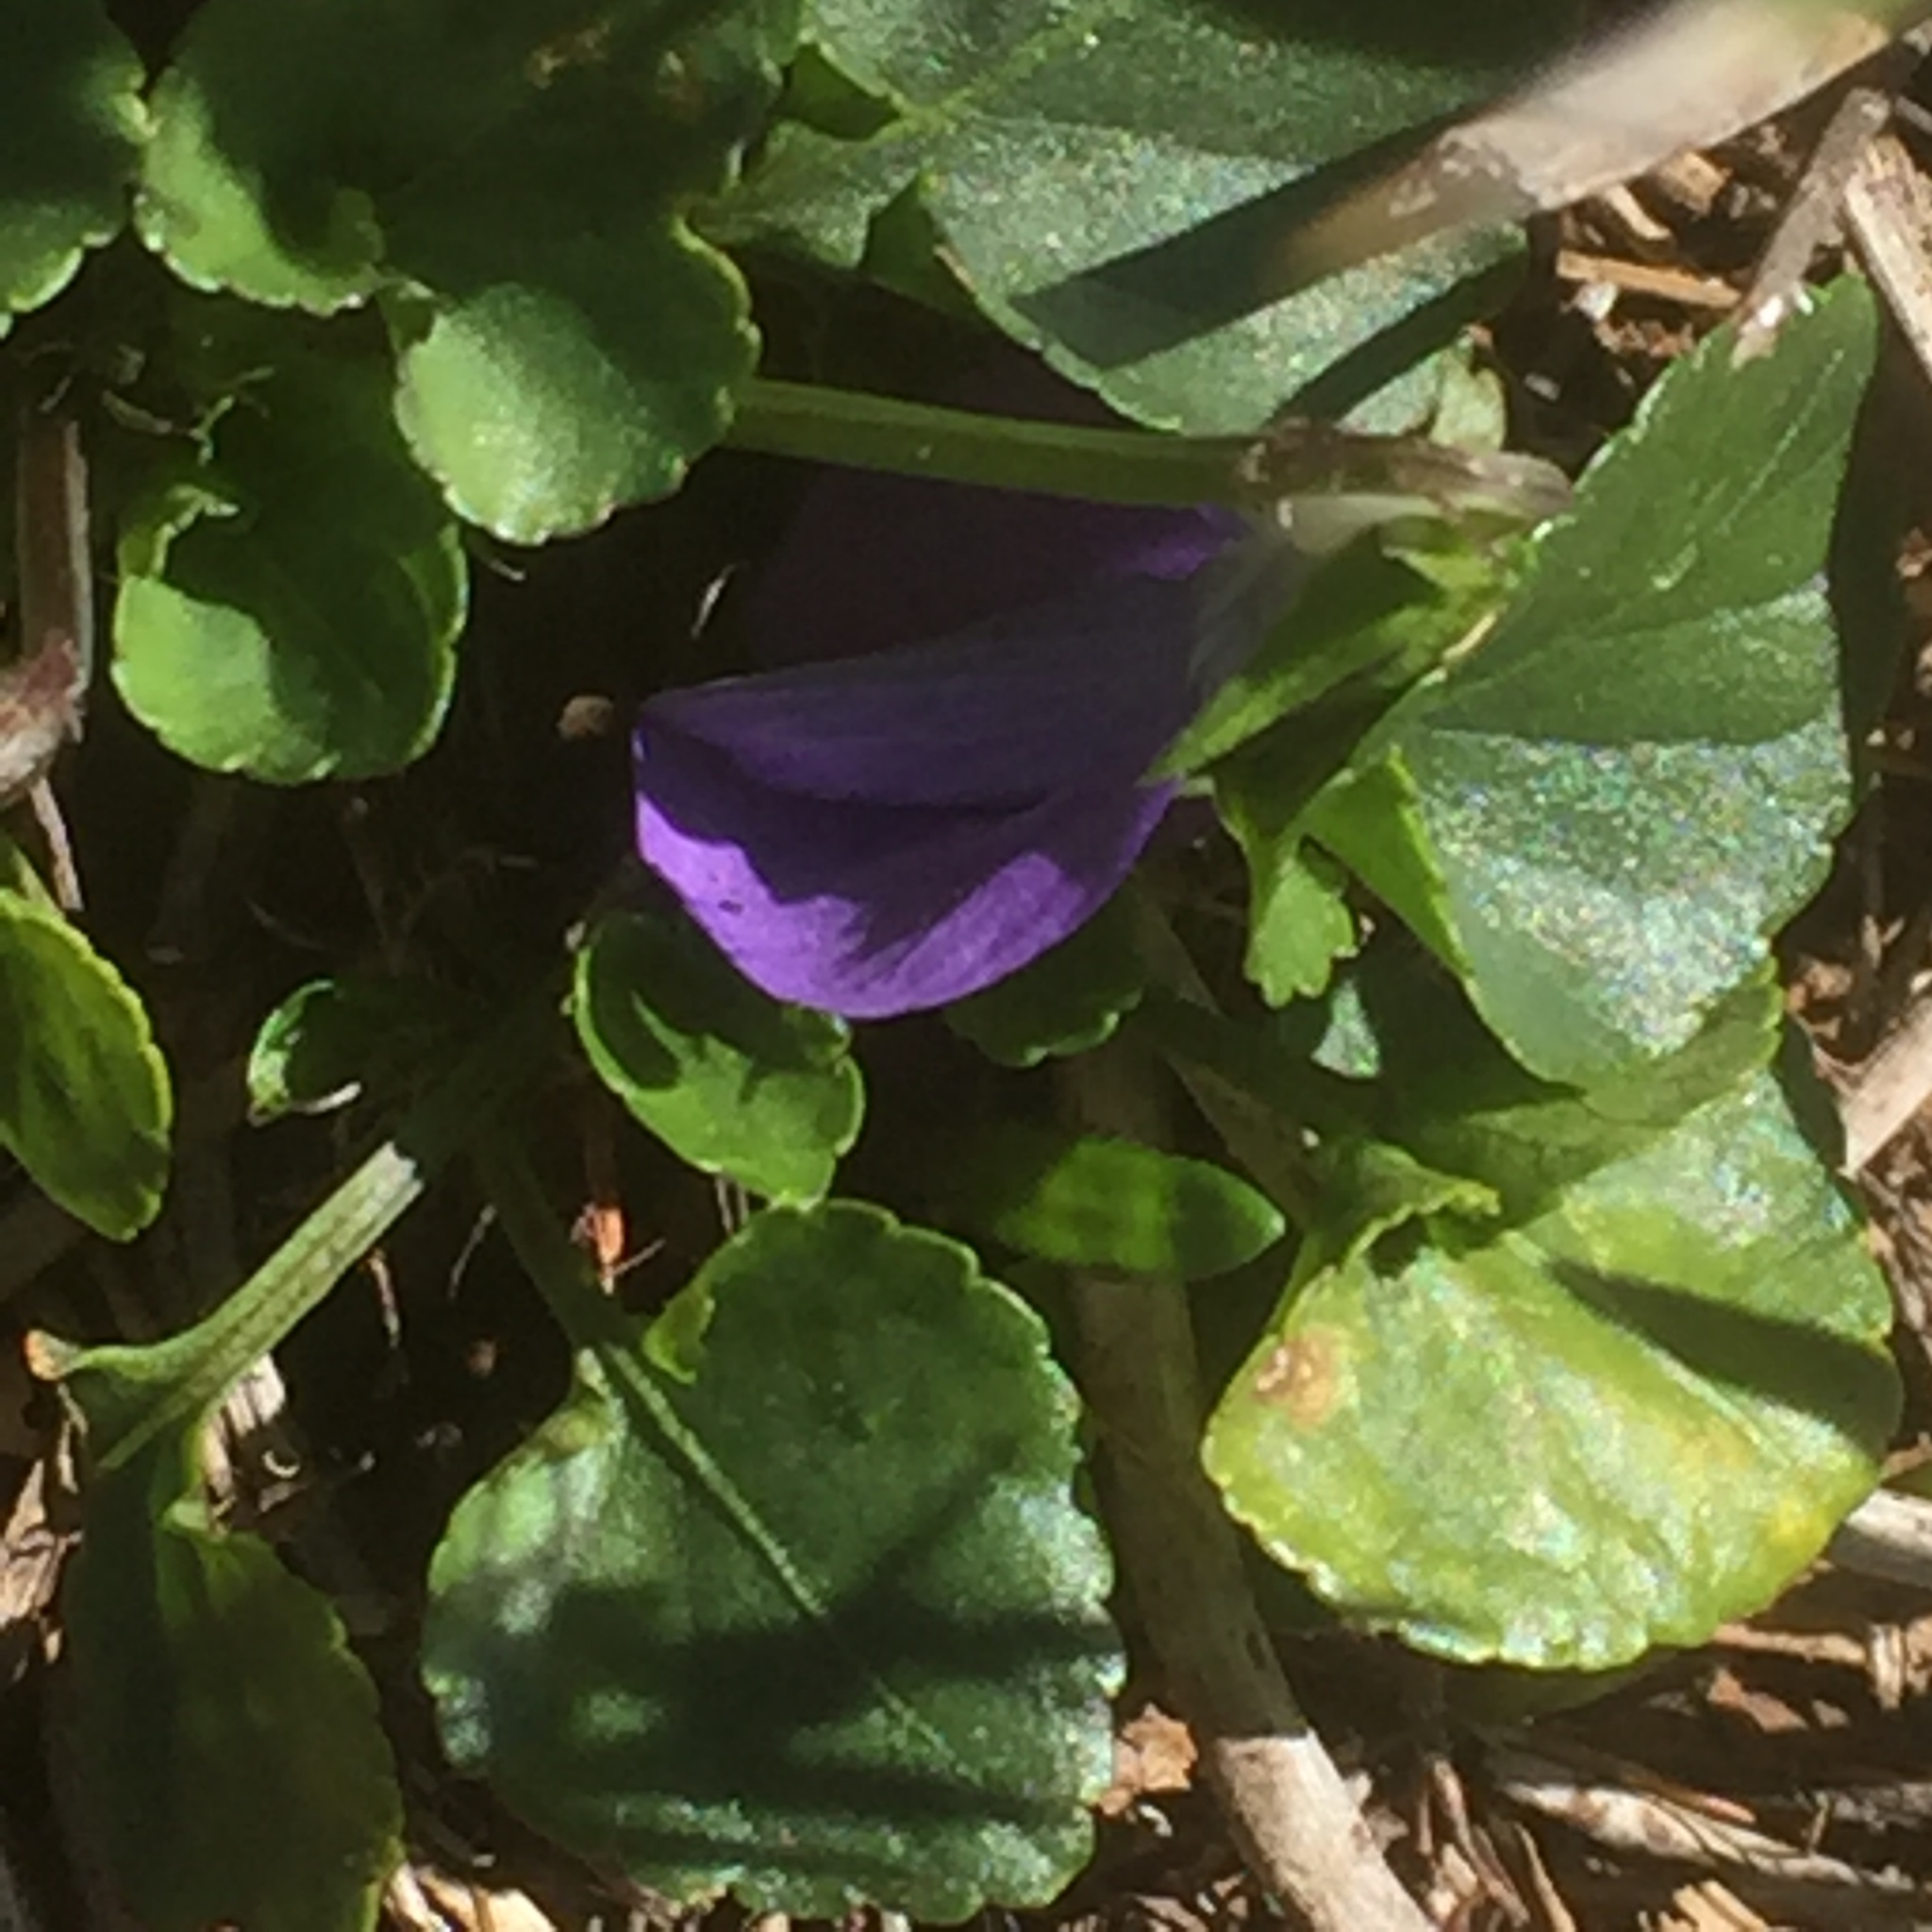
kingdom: Plantae
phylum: Tracheophyta
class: Magnoliopsida
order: Malpighiales
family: Violaceae
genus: Viola
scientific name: Viola odorata
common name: Sweet violet
